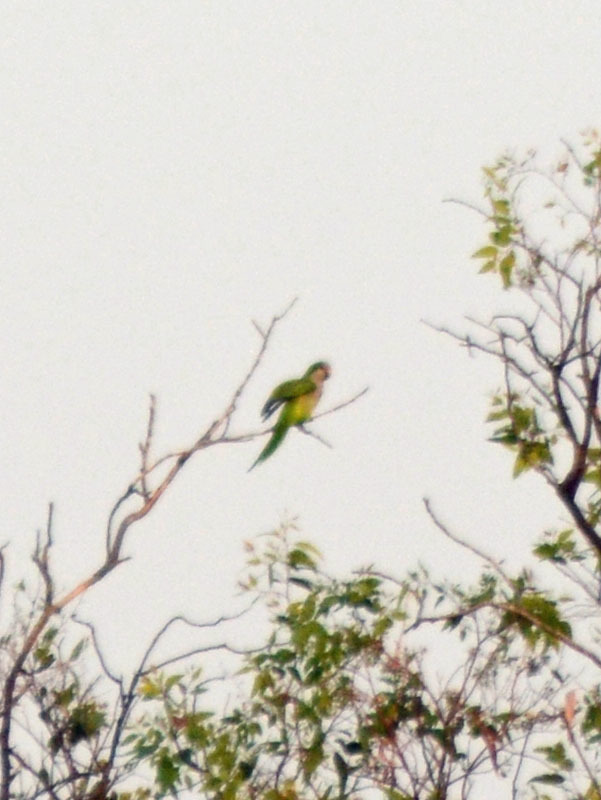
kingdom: Animalia
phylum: Chordata
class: Aves
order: Psittaciformes
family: Psittacidae
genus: Myiopsitta
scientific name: Myiopsitta monachus
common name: Monk parakeet
